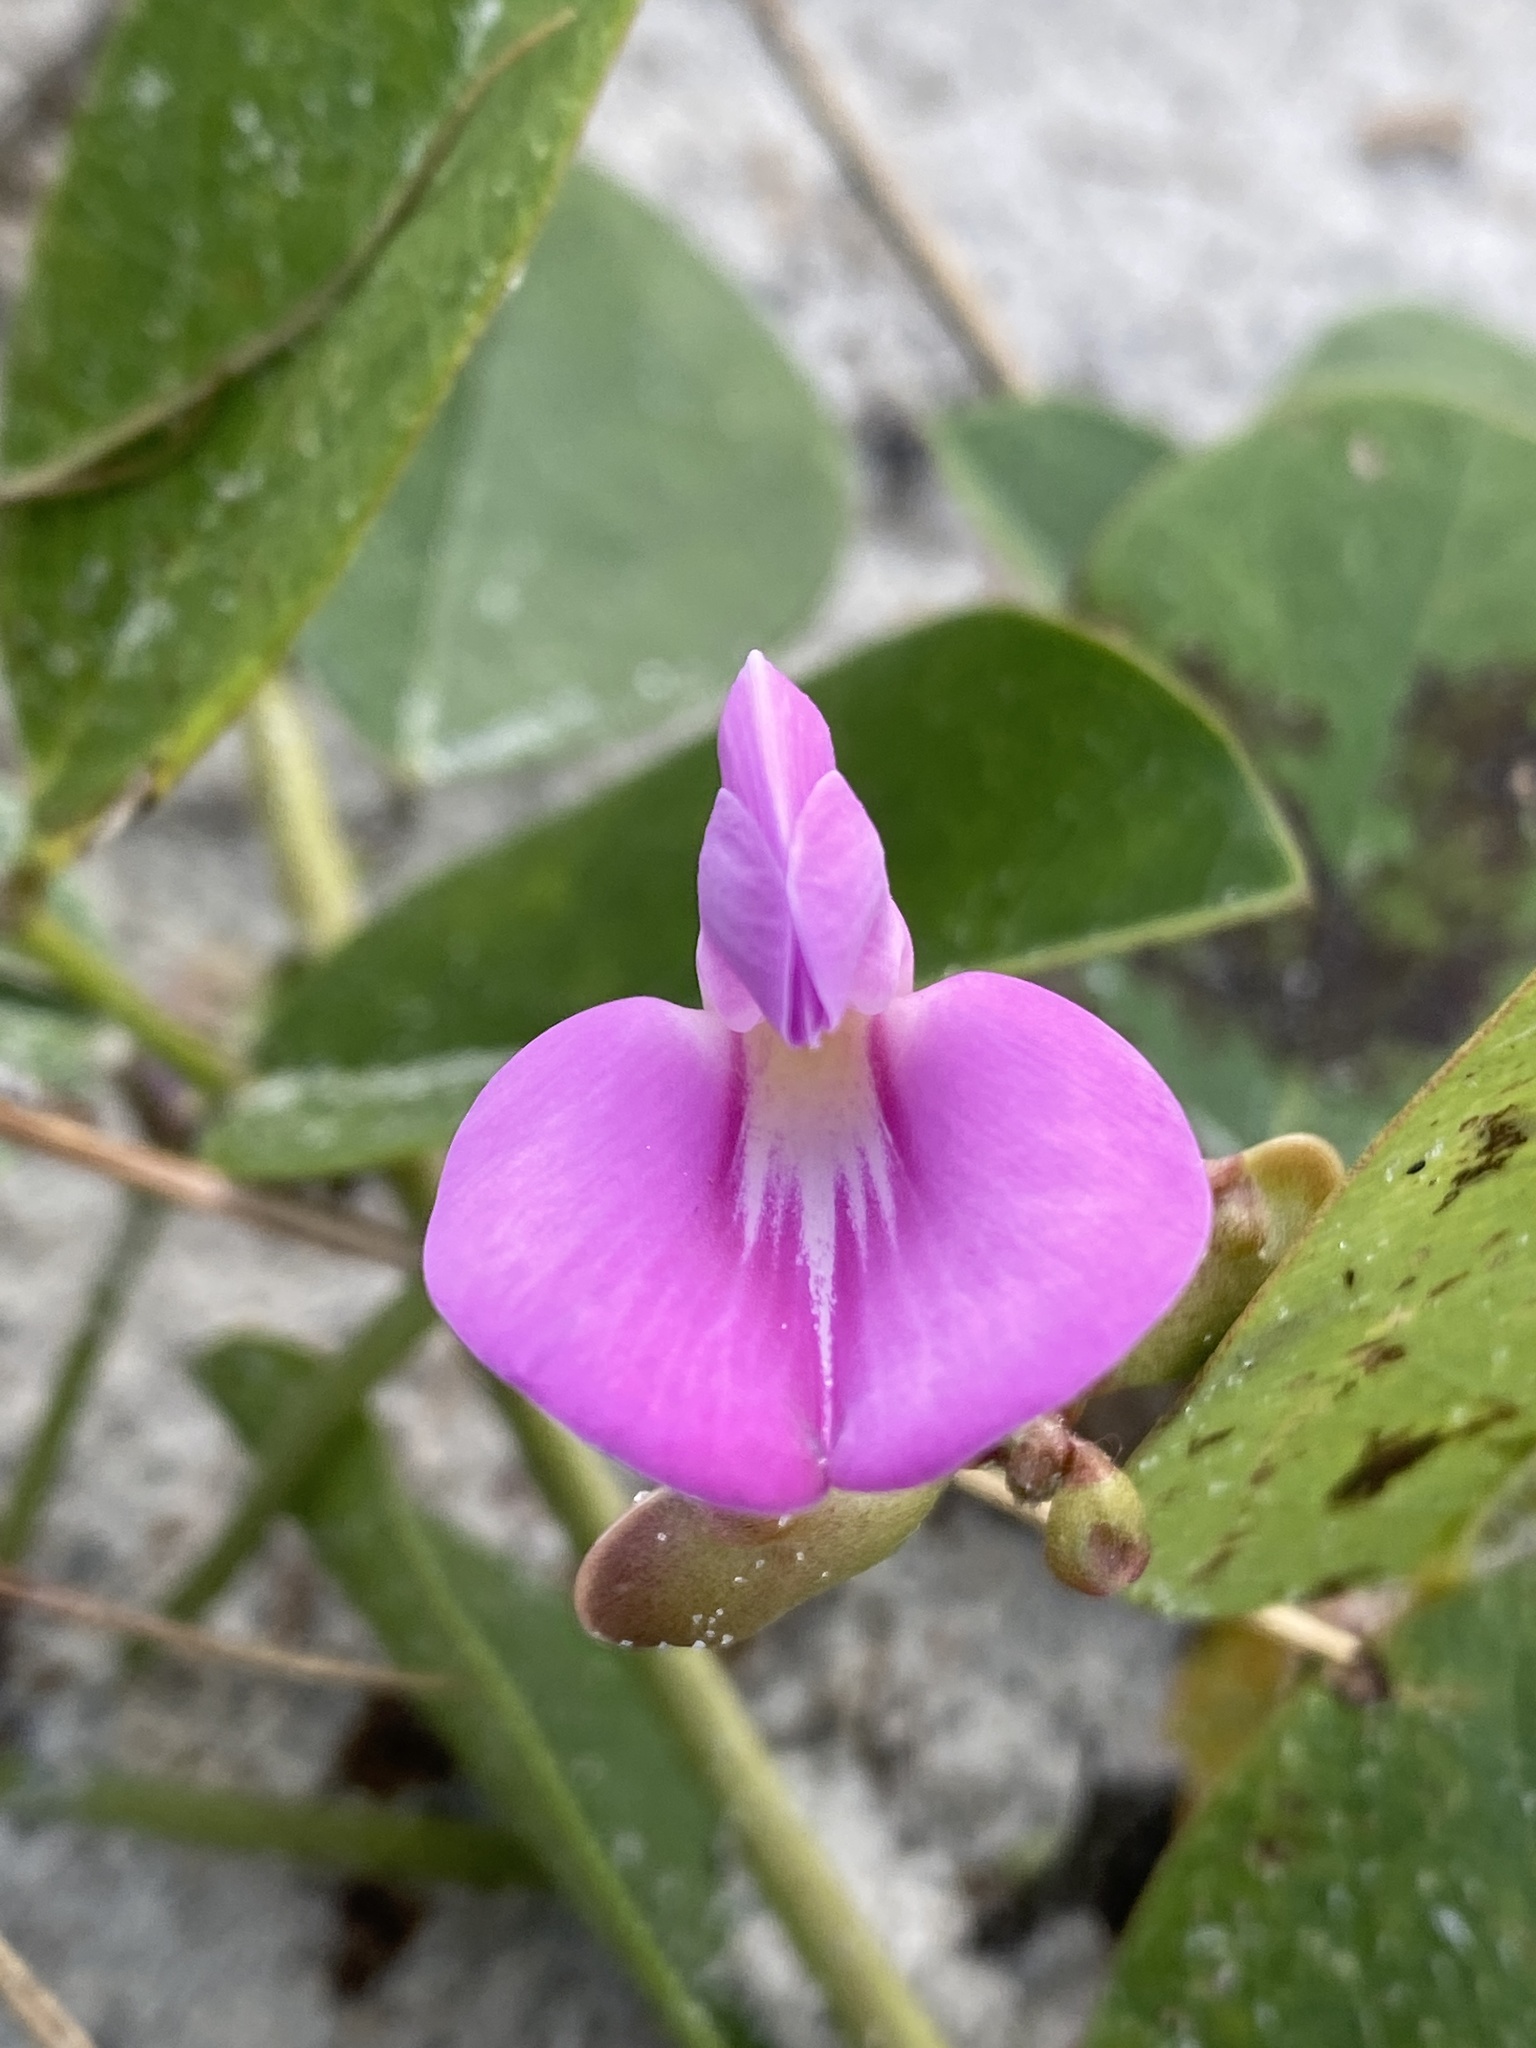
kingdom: Plantae
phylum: Tracheophyta
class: Magnoliopsida
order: Fabales
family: Fabaceae
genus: Canavalia
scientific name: Canavalia rosea
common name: Beach-bean
